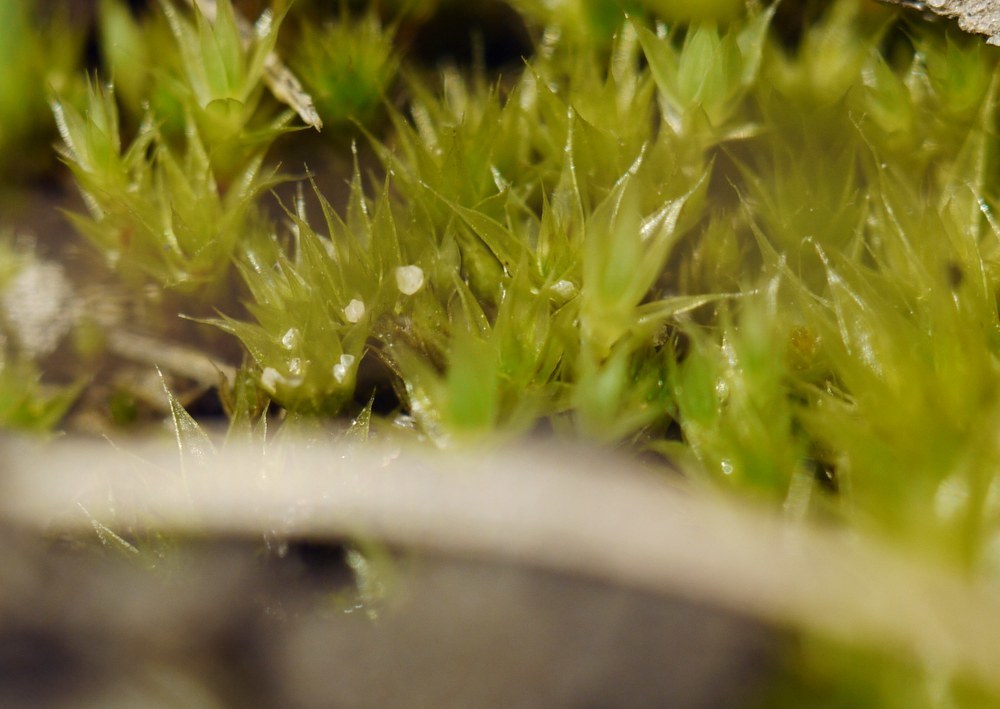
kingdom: Plantae
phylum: Bryophyta
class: Bryopsida
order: Funariales
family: Funariaceae
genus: Funaria
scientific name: Funaria hygrometrica
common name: Common cord moss
